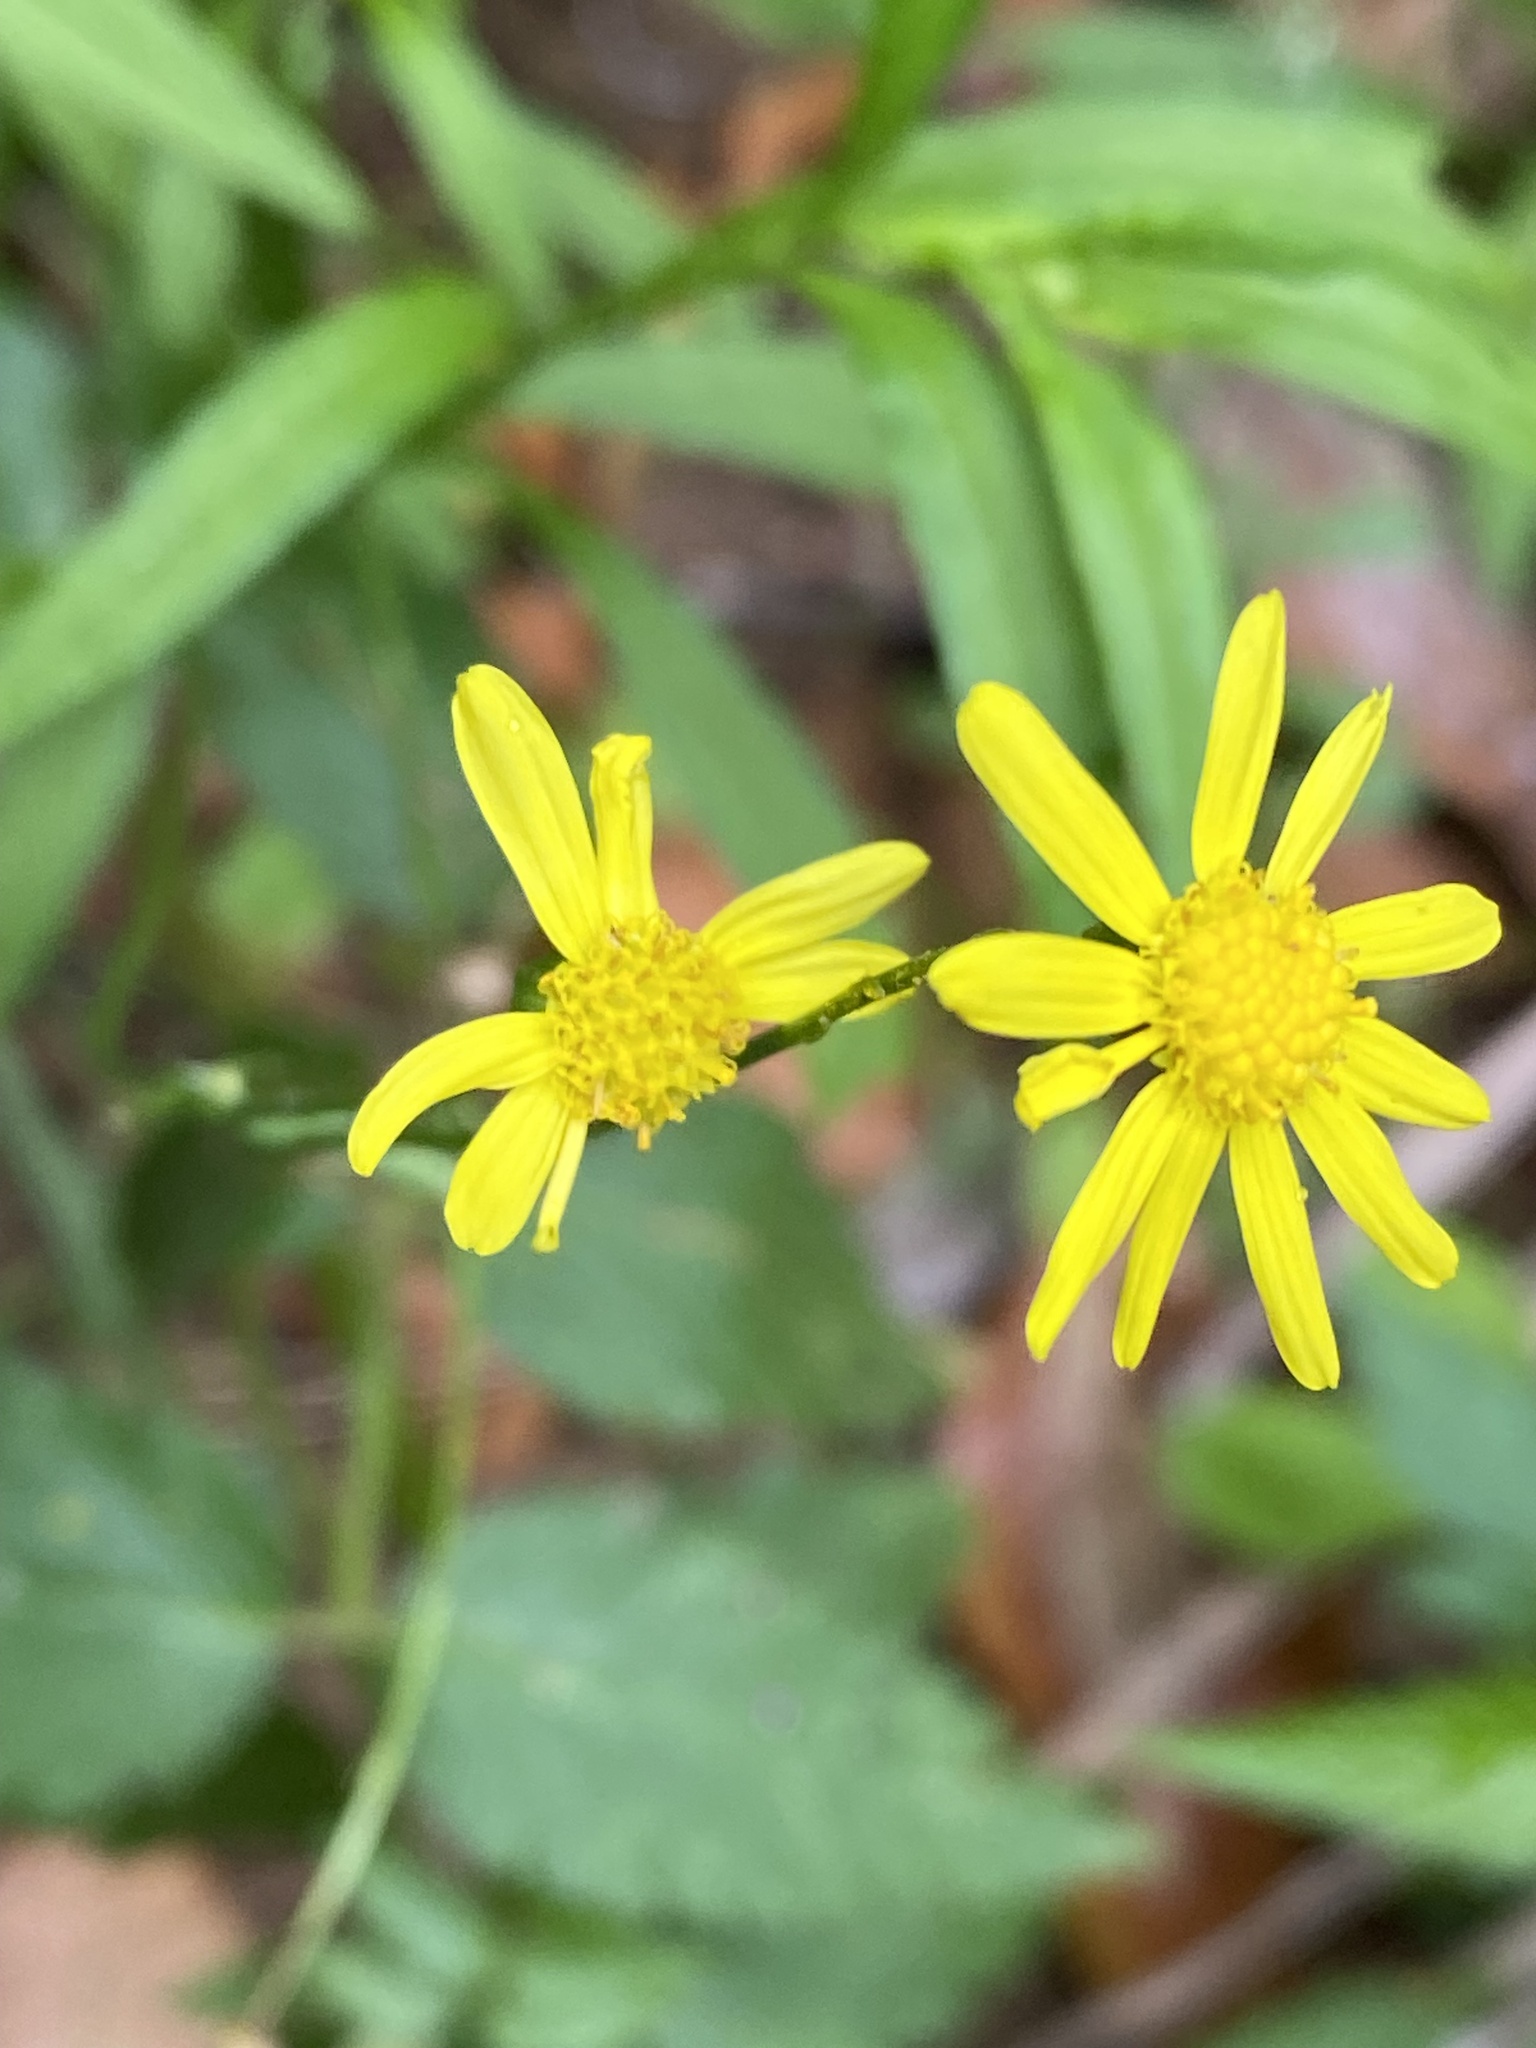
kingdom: Plantae
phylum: Tracheophyta
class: Magnoliopsida
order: Asterales
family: Asteraceae
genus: Senecio
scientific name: Senecio madagascariensis
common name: Madagascar ragwort
